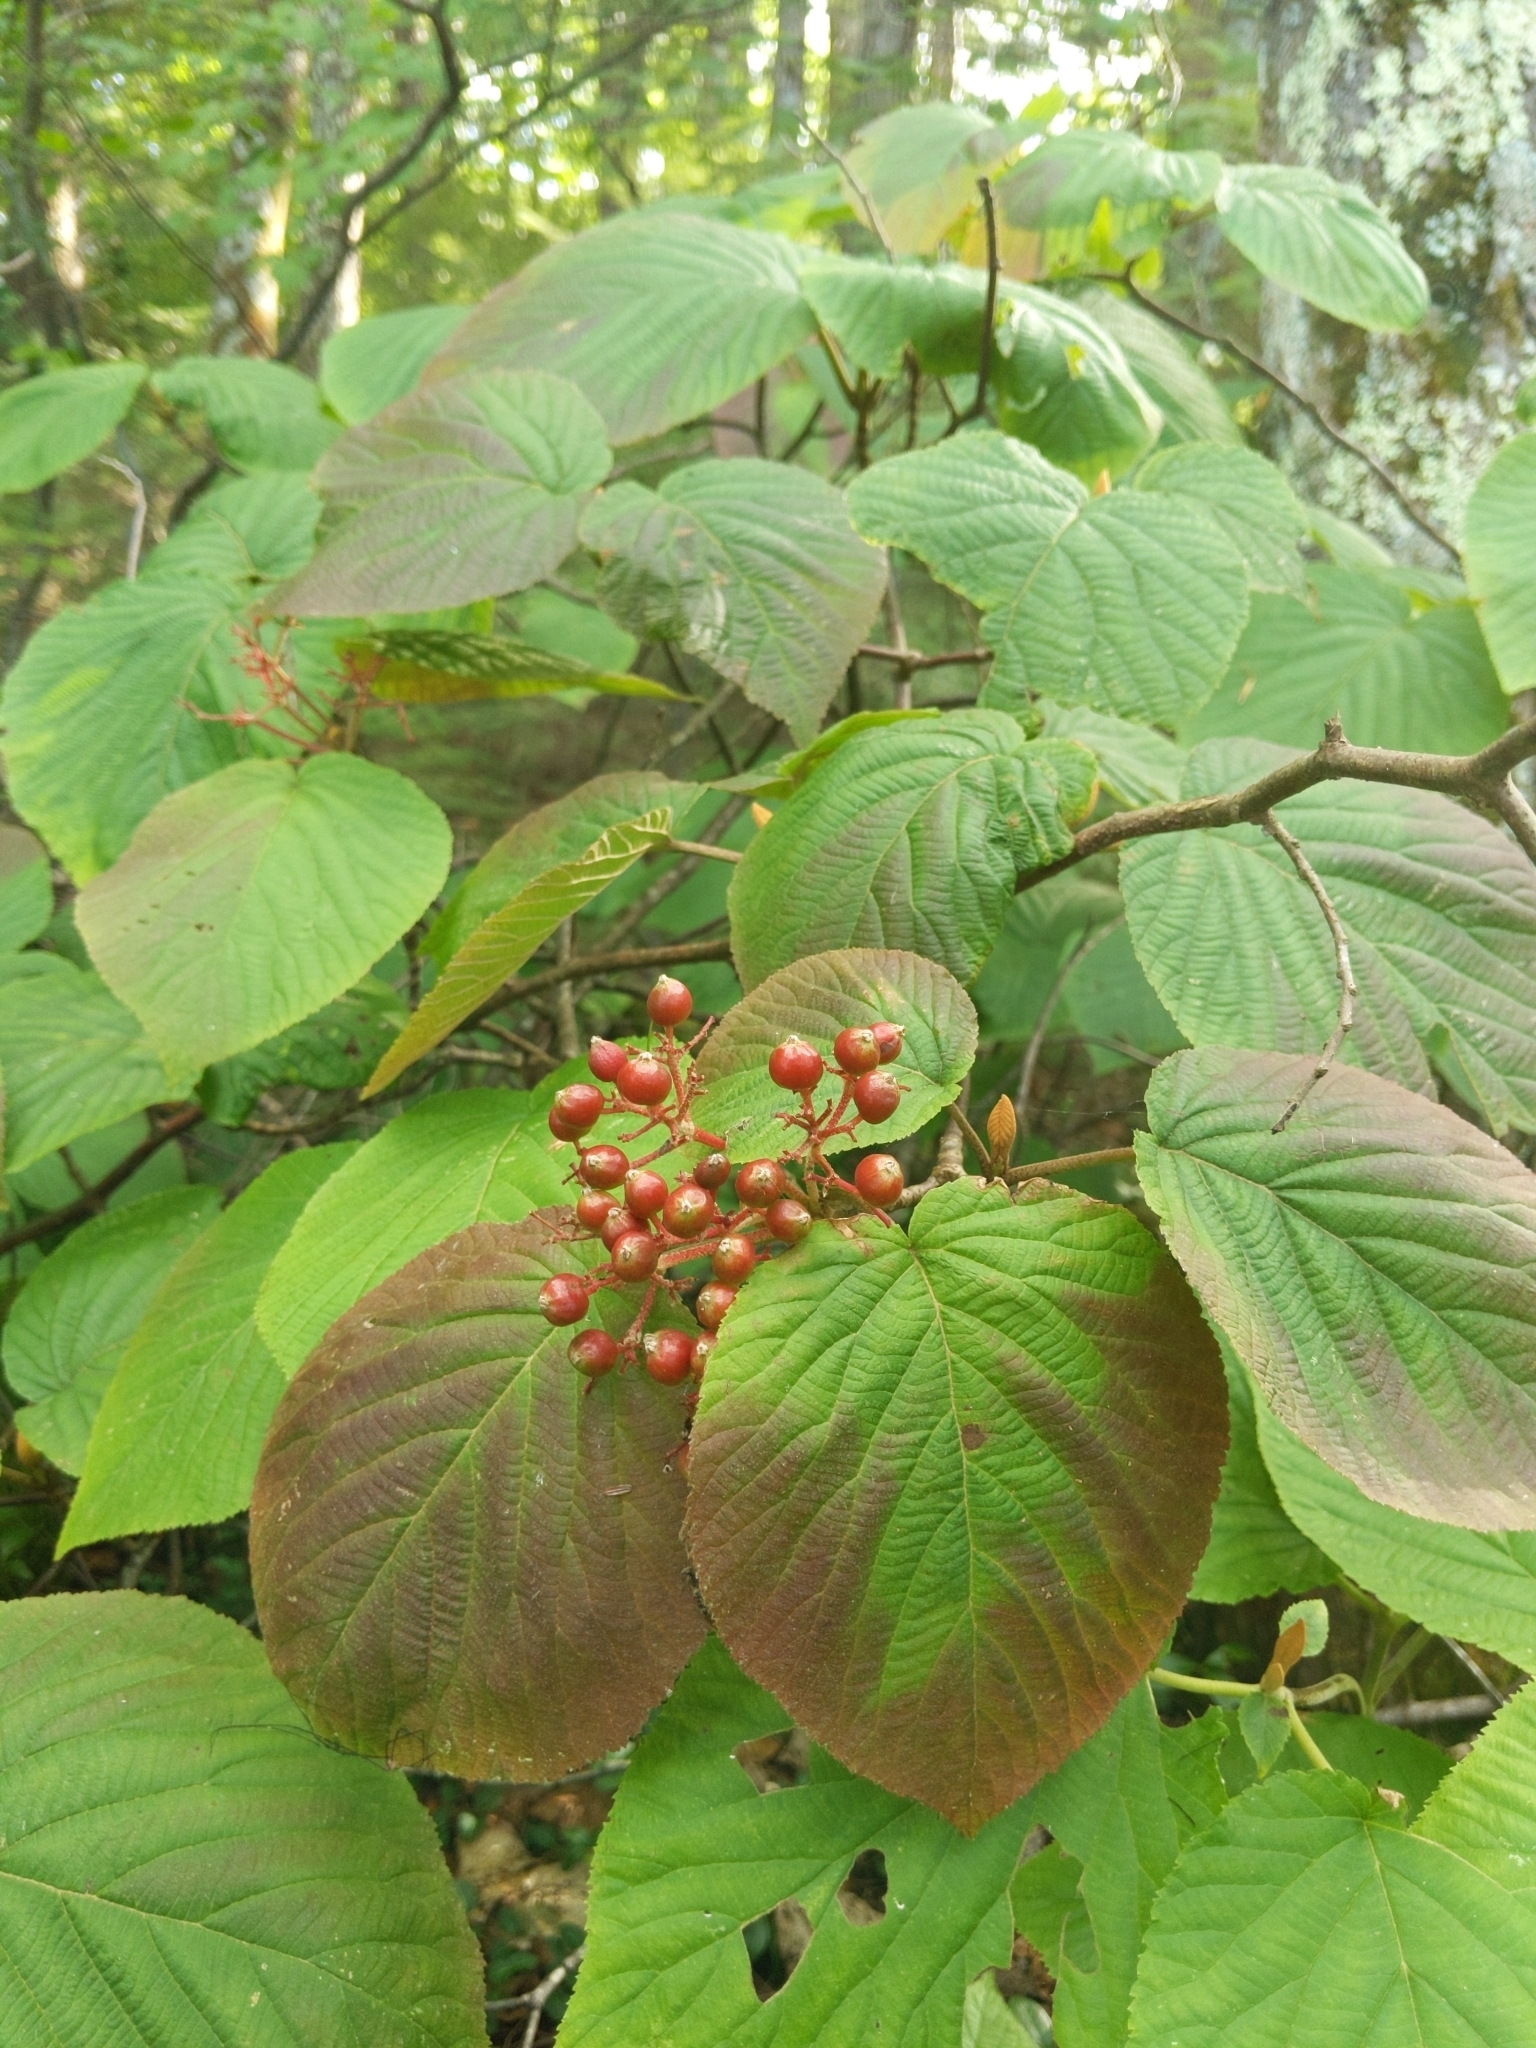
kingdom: Plantae
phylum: Tracheophyta
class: Magnoliopsida
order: Dipsacales
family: Viburnaceae
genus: Viburnum
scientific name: Viburnum lantanoides
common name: Hobblebush
